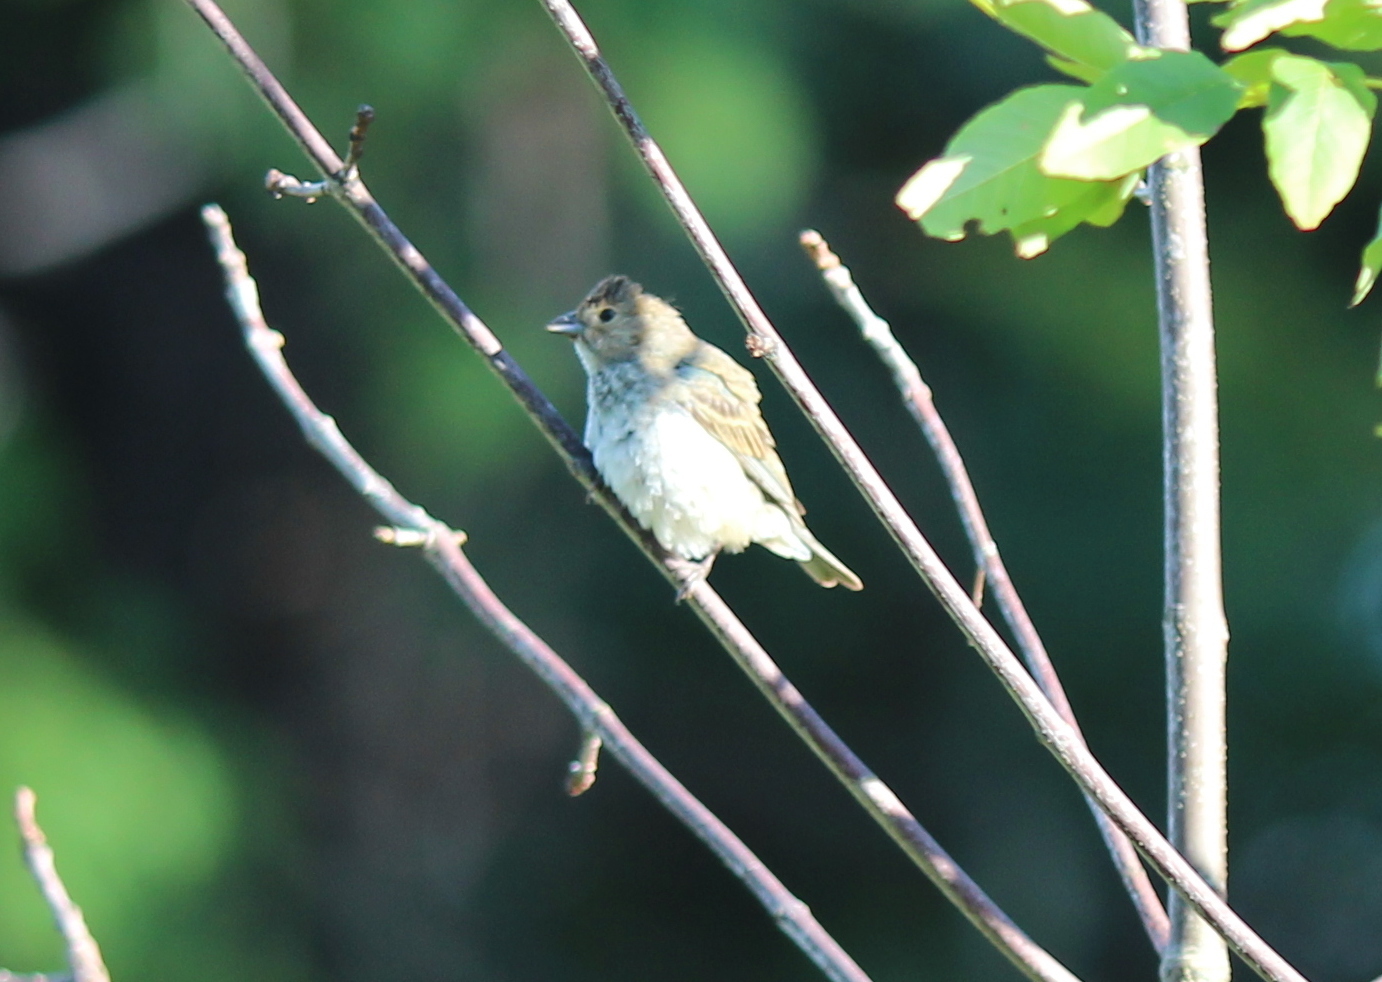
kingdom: Animalia
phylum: Chordata
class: Aves
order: Passeriformes
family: Cardinalidae
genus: Passerina
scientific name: Passerina cyanea
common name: Indigo bunting
